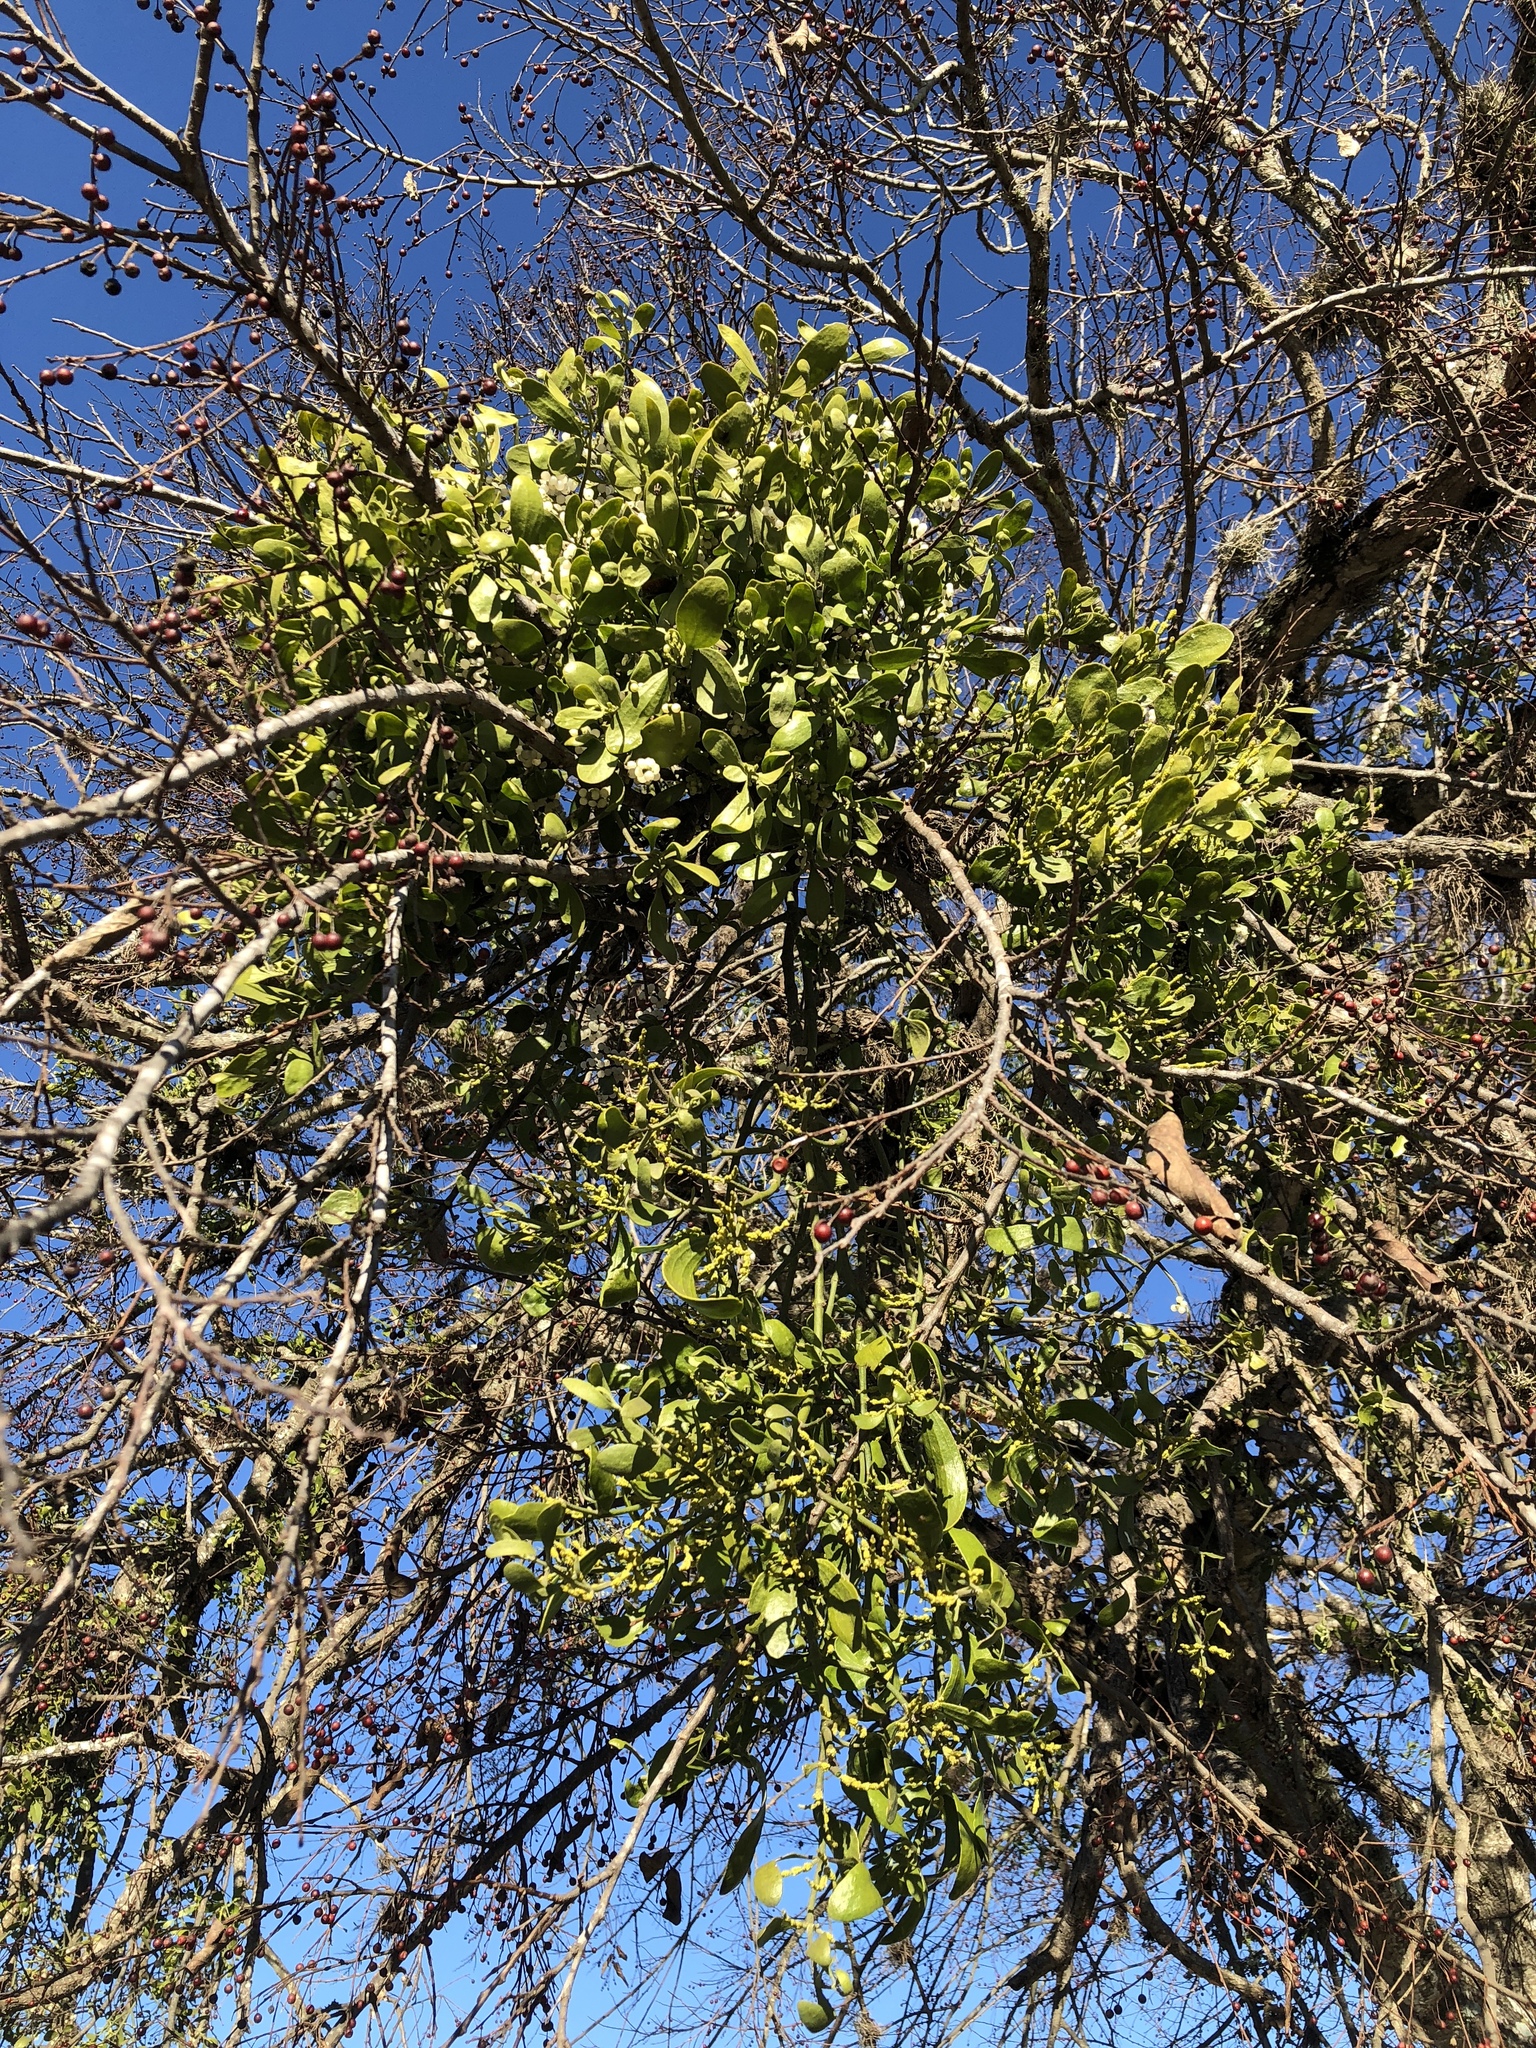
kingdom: Plantae
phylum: Tracheophyta
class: Magnoliopsida
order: Santalales
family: Viscaceae
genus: Phoradendron
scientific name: Phoradendron leucarpum
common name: Pacific mistletoe
